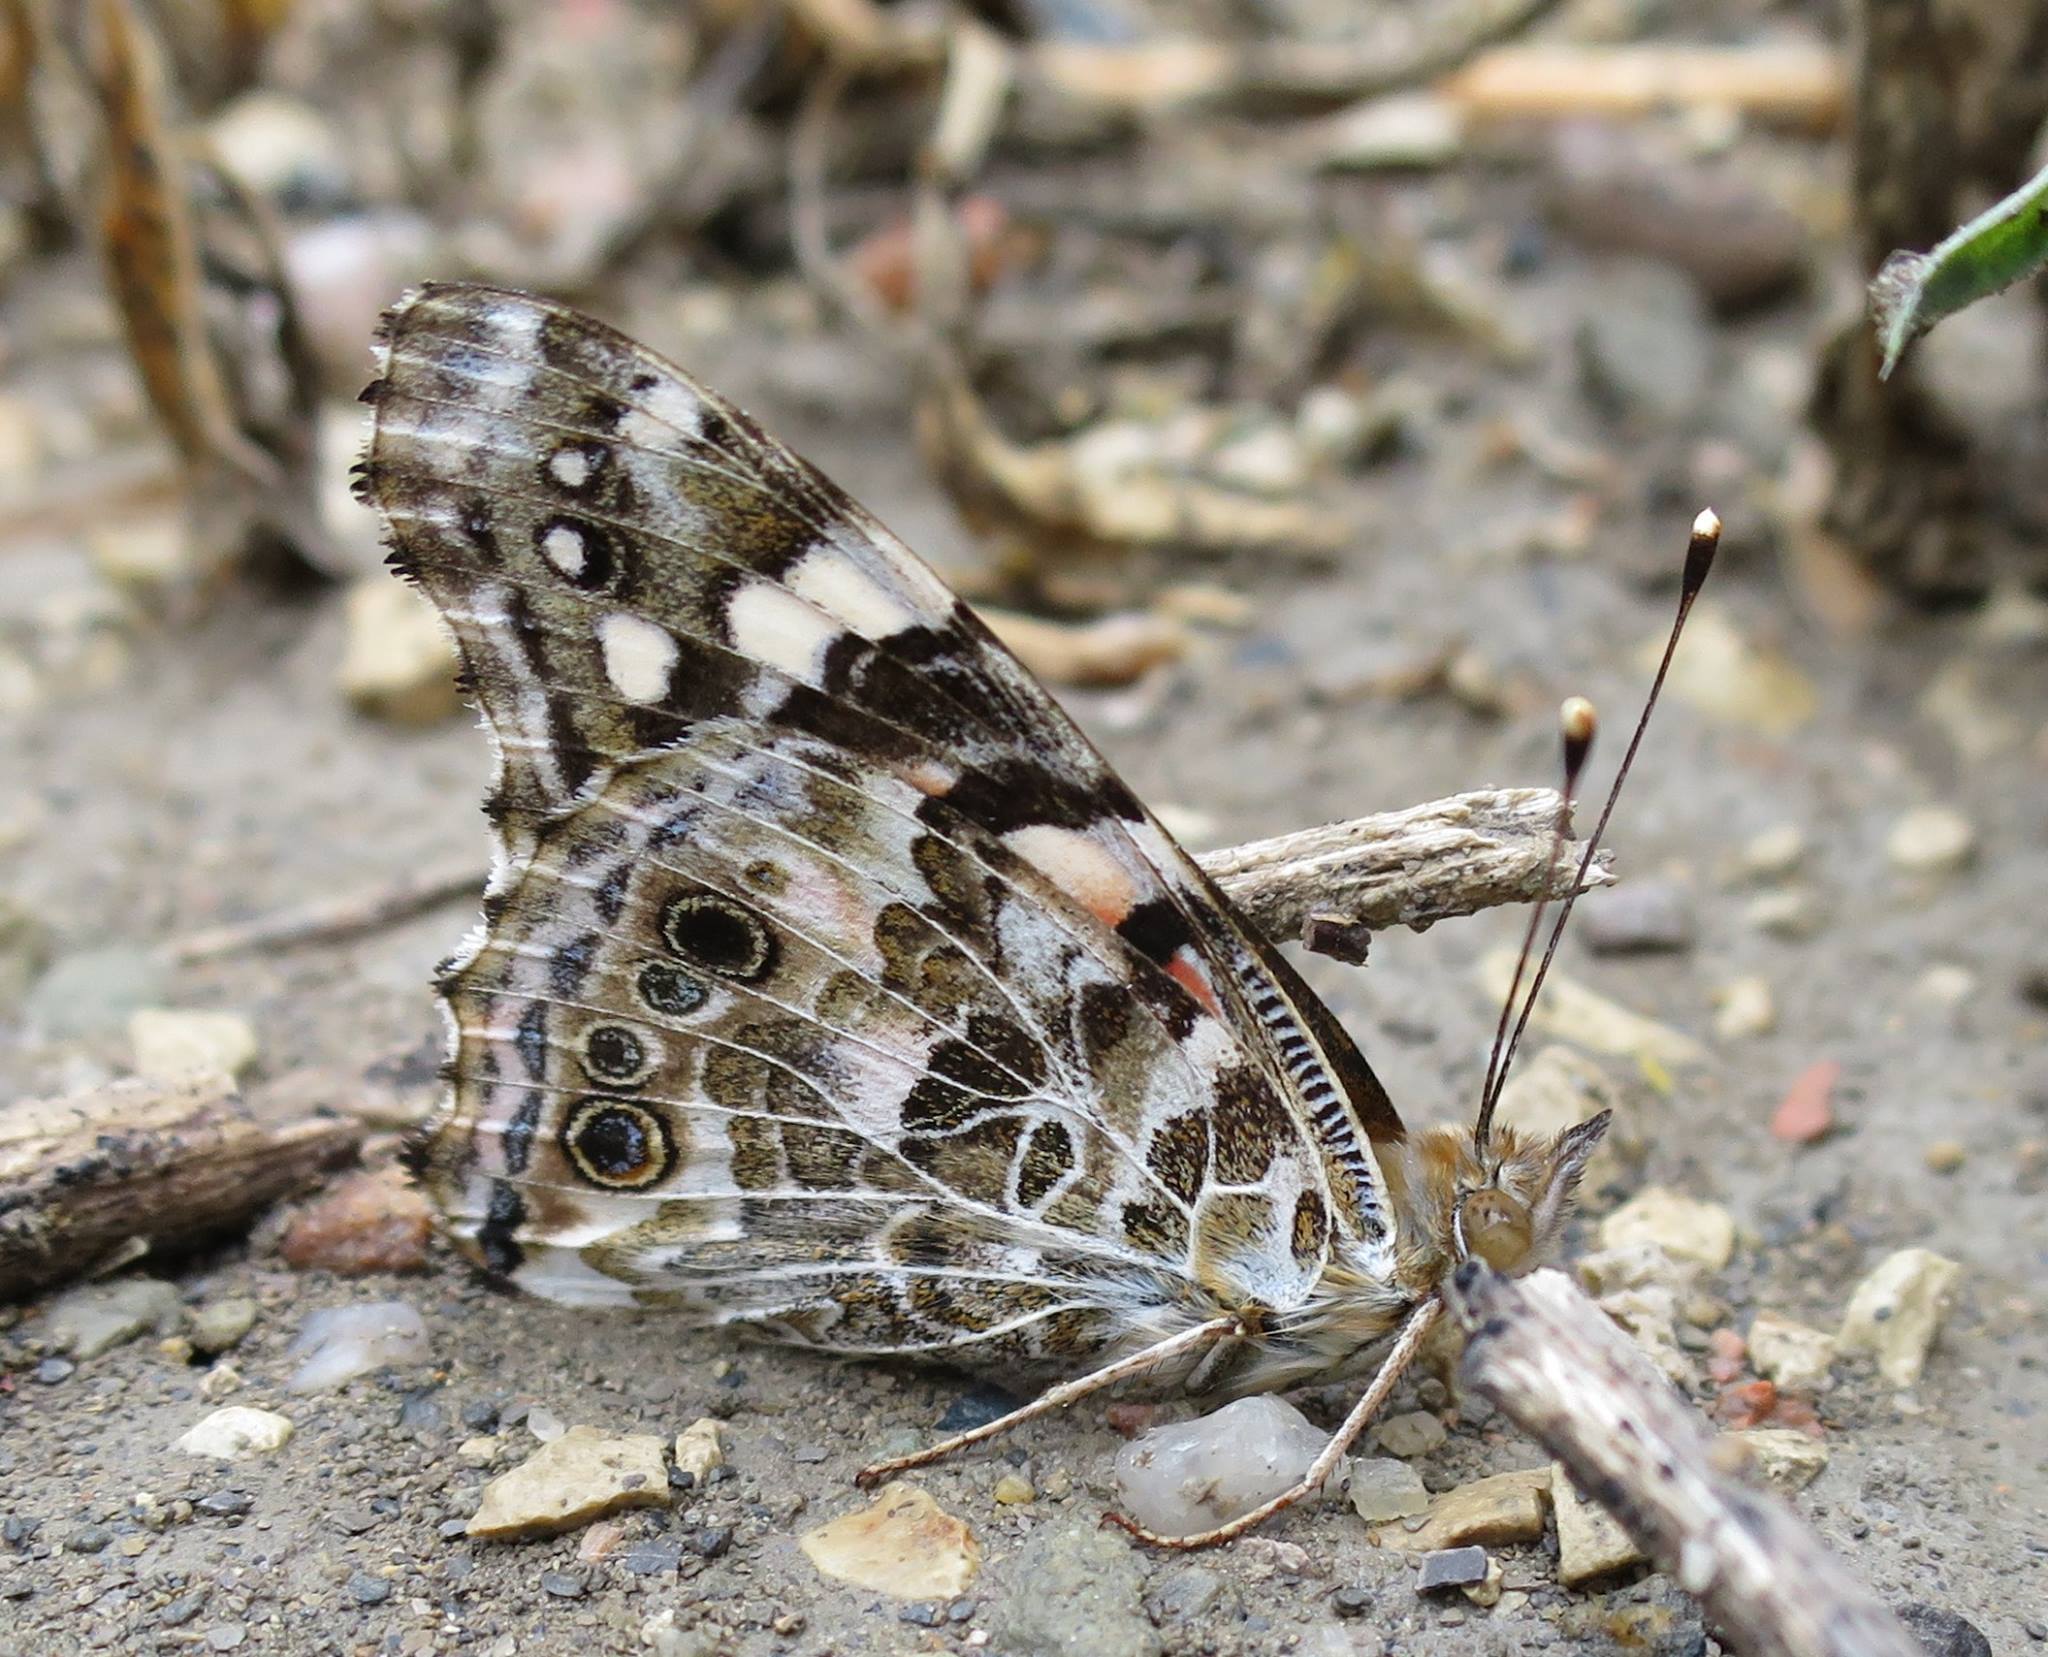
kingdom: Animalia
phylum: Arthropoda
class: Insecta
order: Lepidoptera
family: Nymphalidae
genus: Vanessa
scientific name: Vanessa cardui
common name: Painted lady
